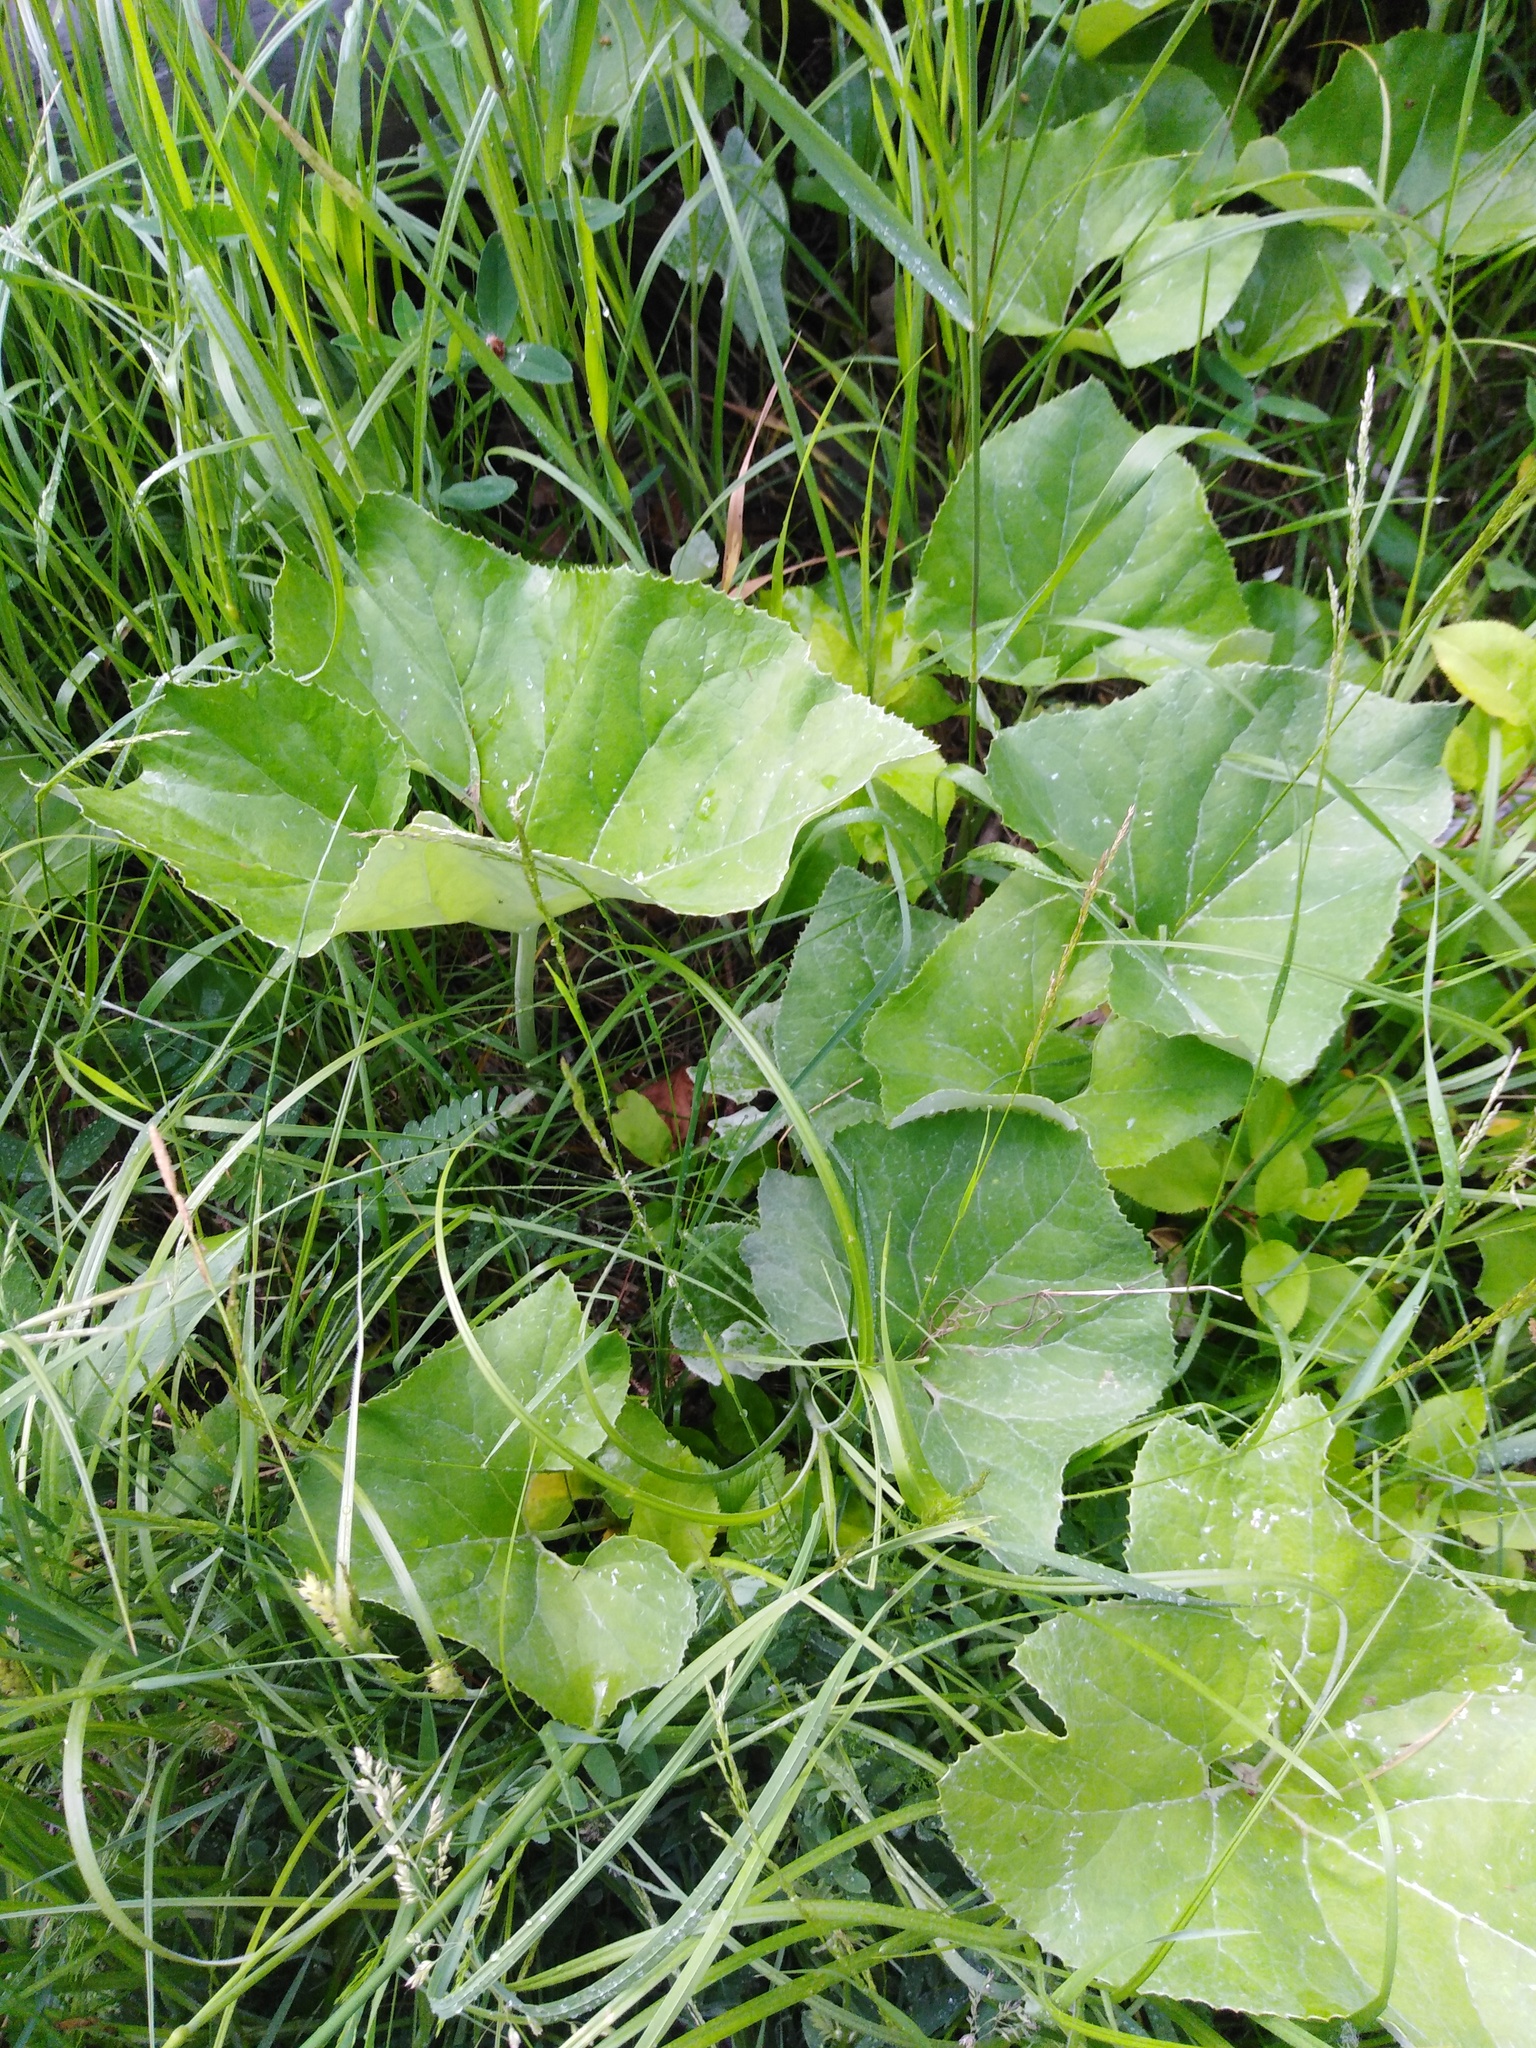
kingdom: Plantae
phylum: Tracheophyta
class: Magnoliopsida
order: Asterales
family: Asteraceae
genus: Petasites
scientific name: Petasites spurius
